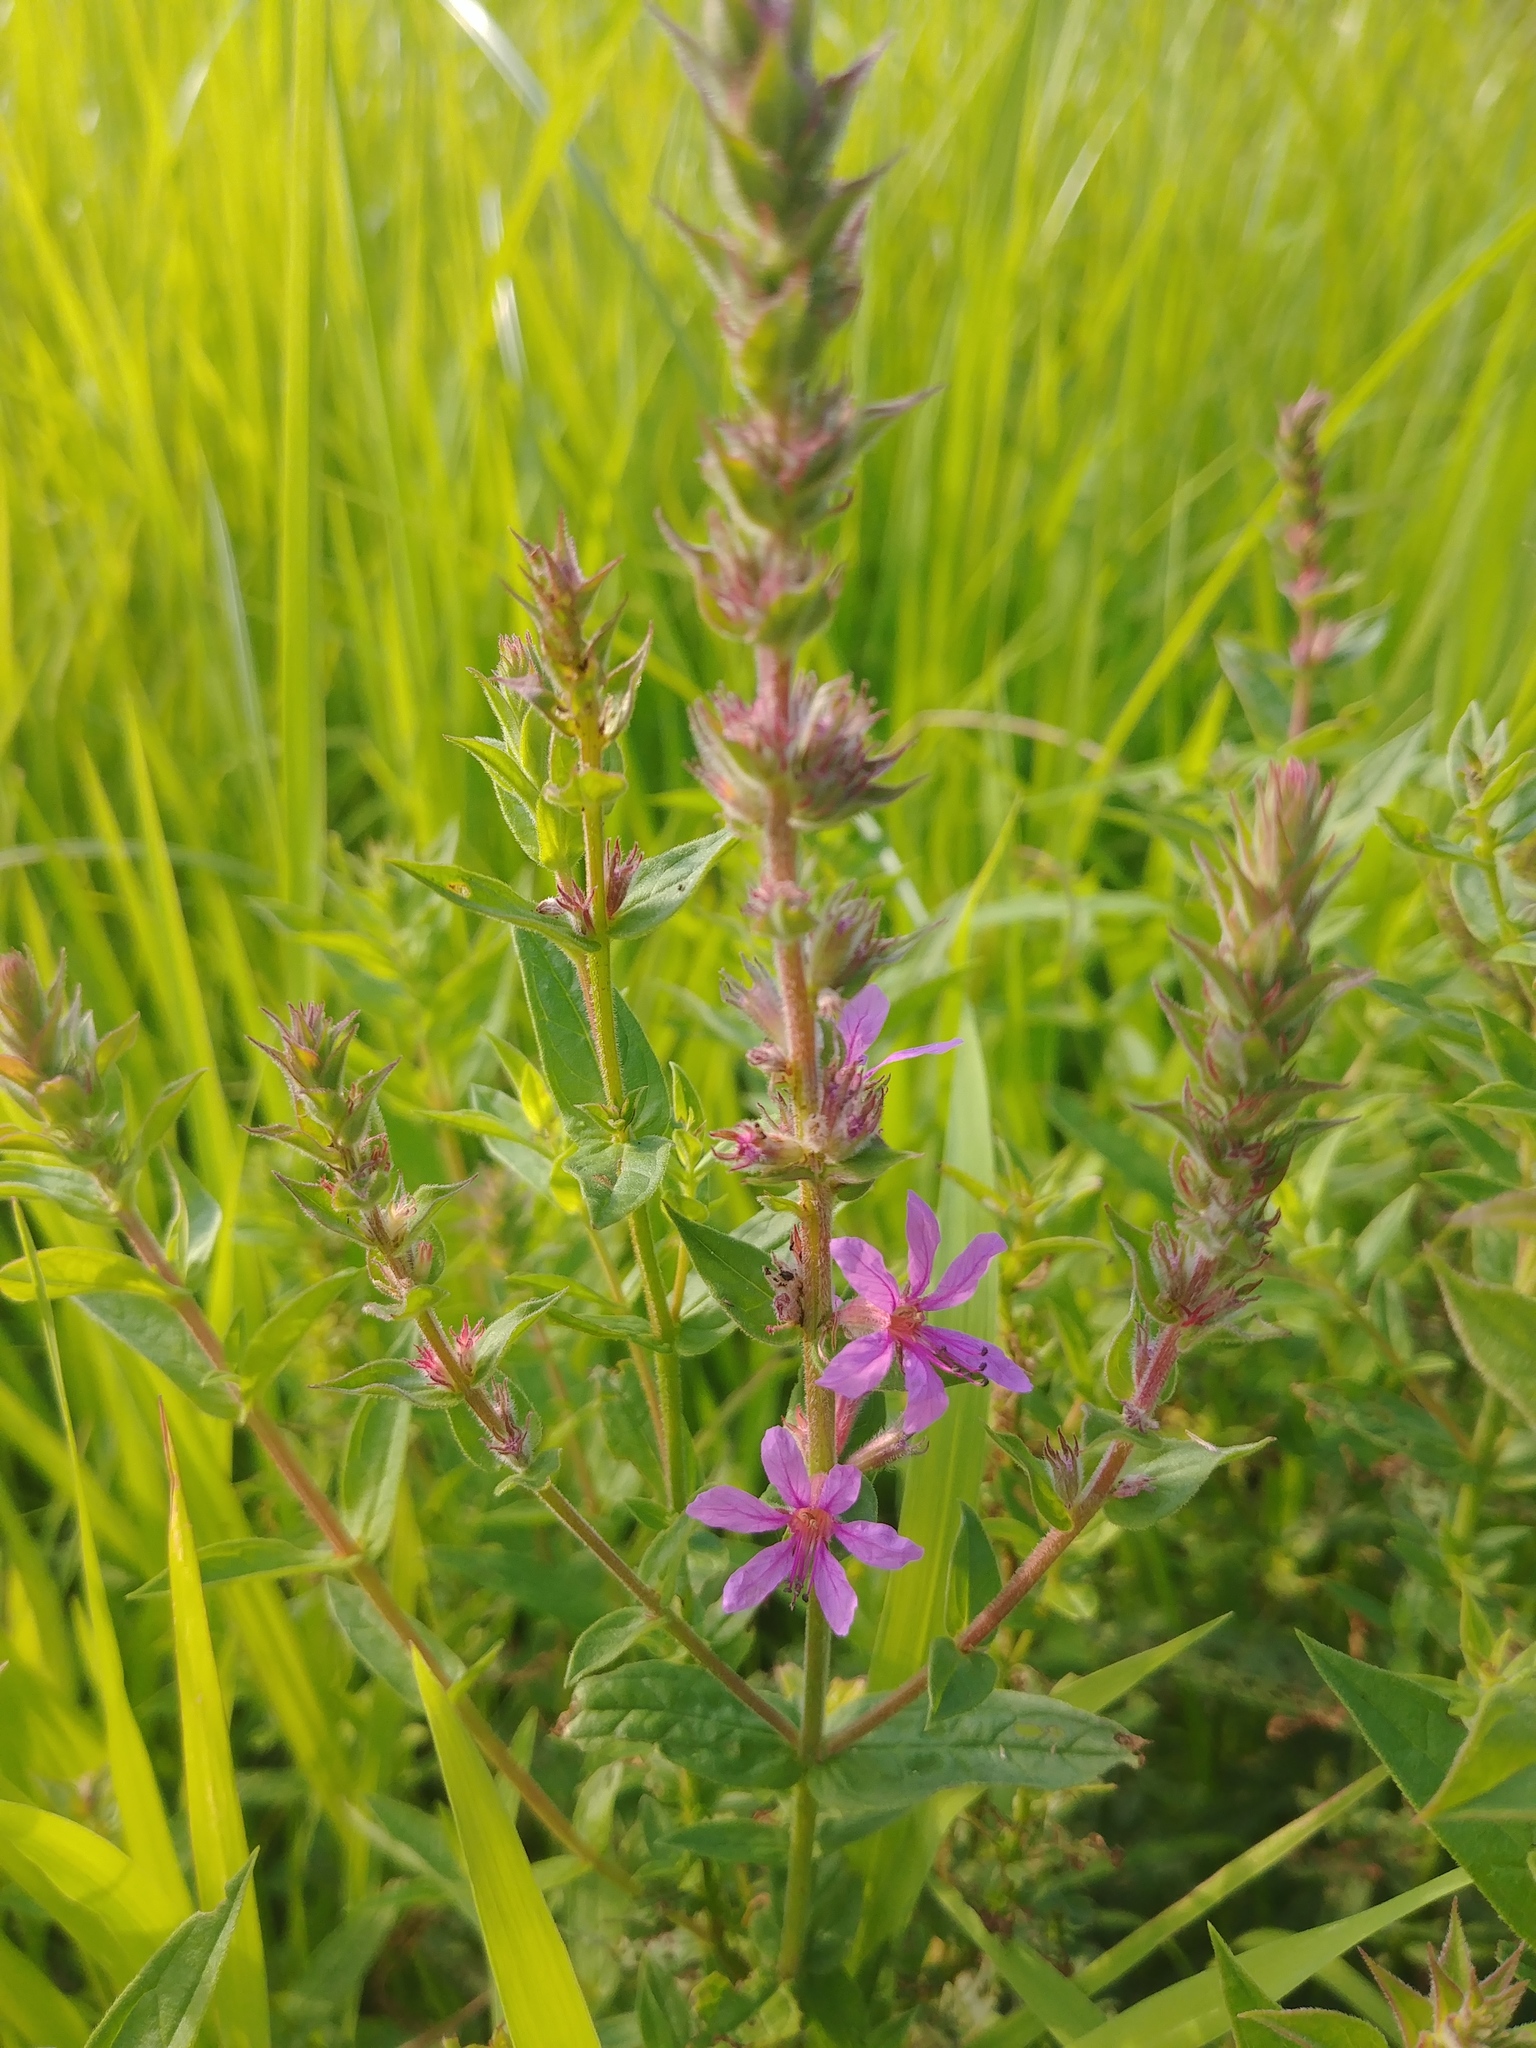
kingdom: Plantae
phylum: Tracheophyta
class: Magnoliopsida
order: Myrtales
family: Lythraceae
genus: Lythrum
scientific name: Lythrum salicaria
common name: Purple loosestrife
